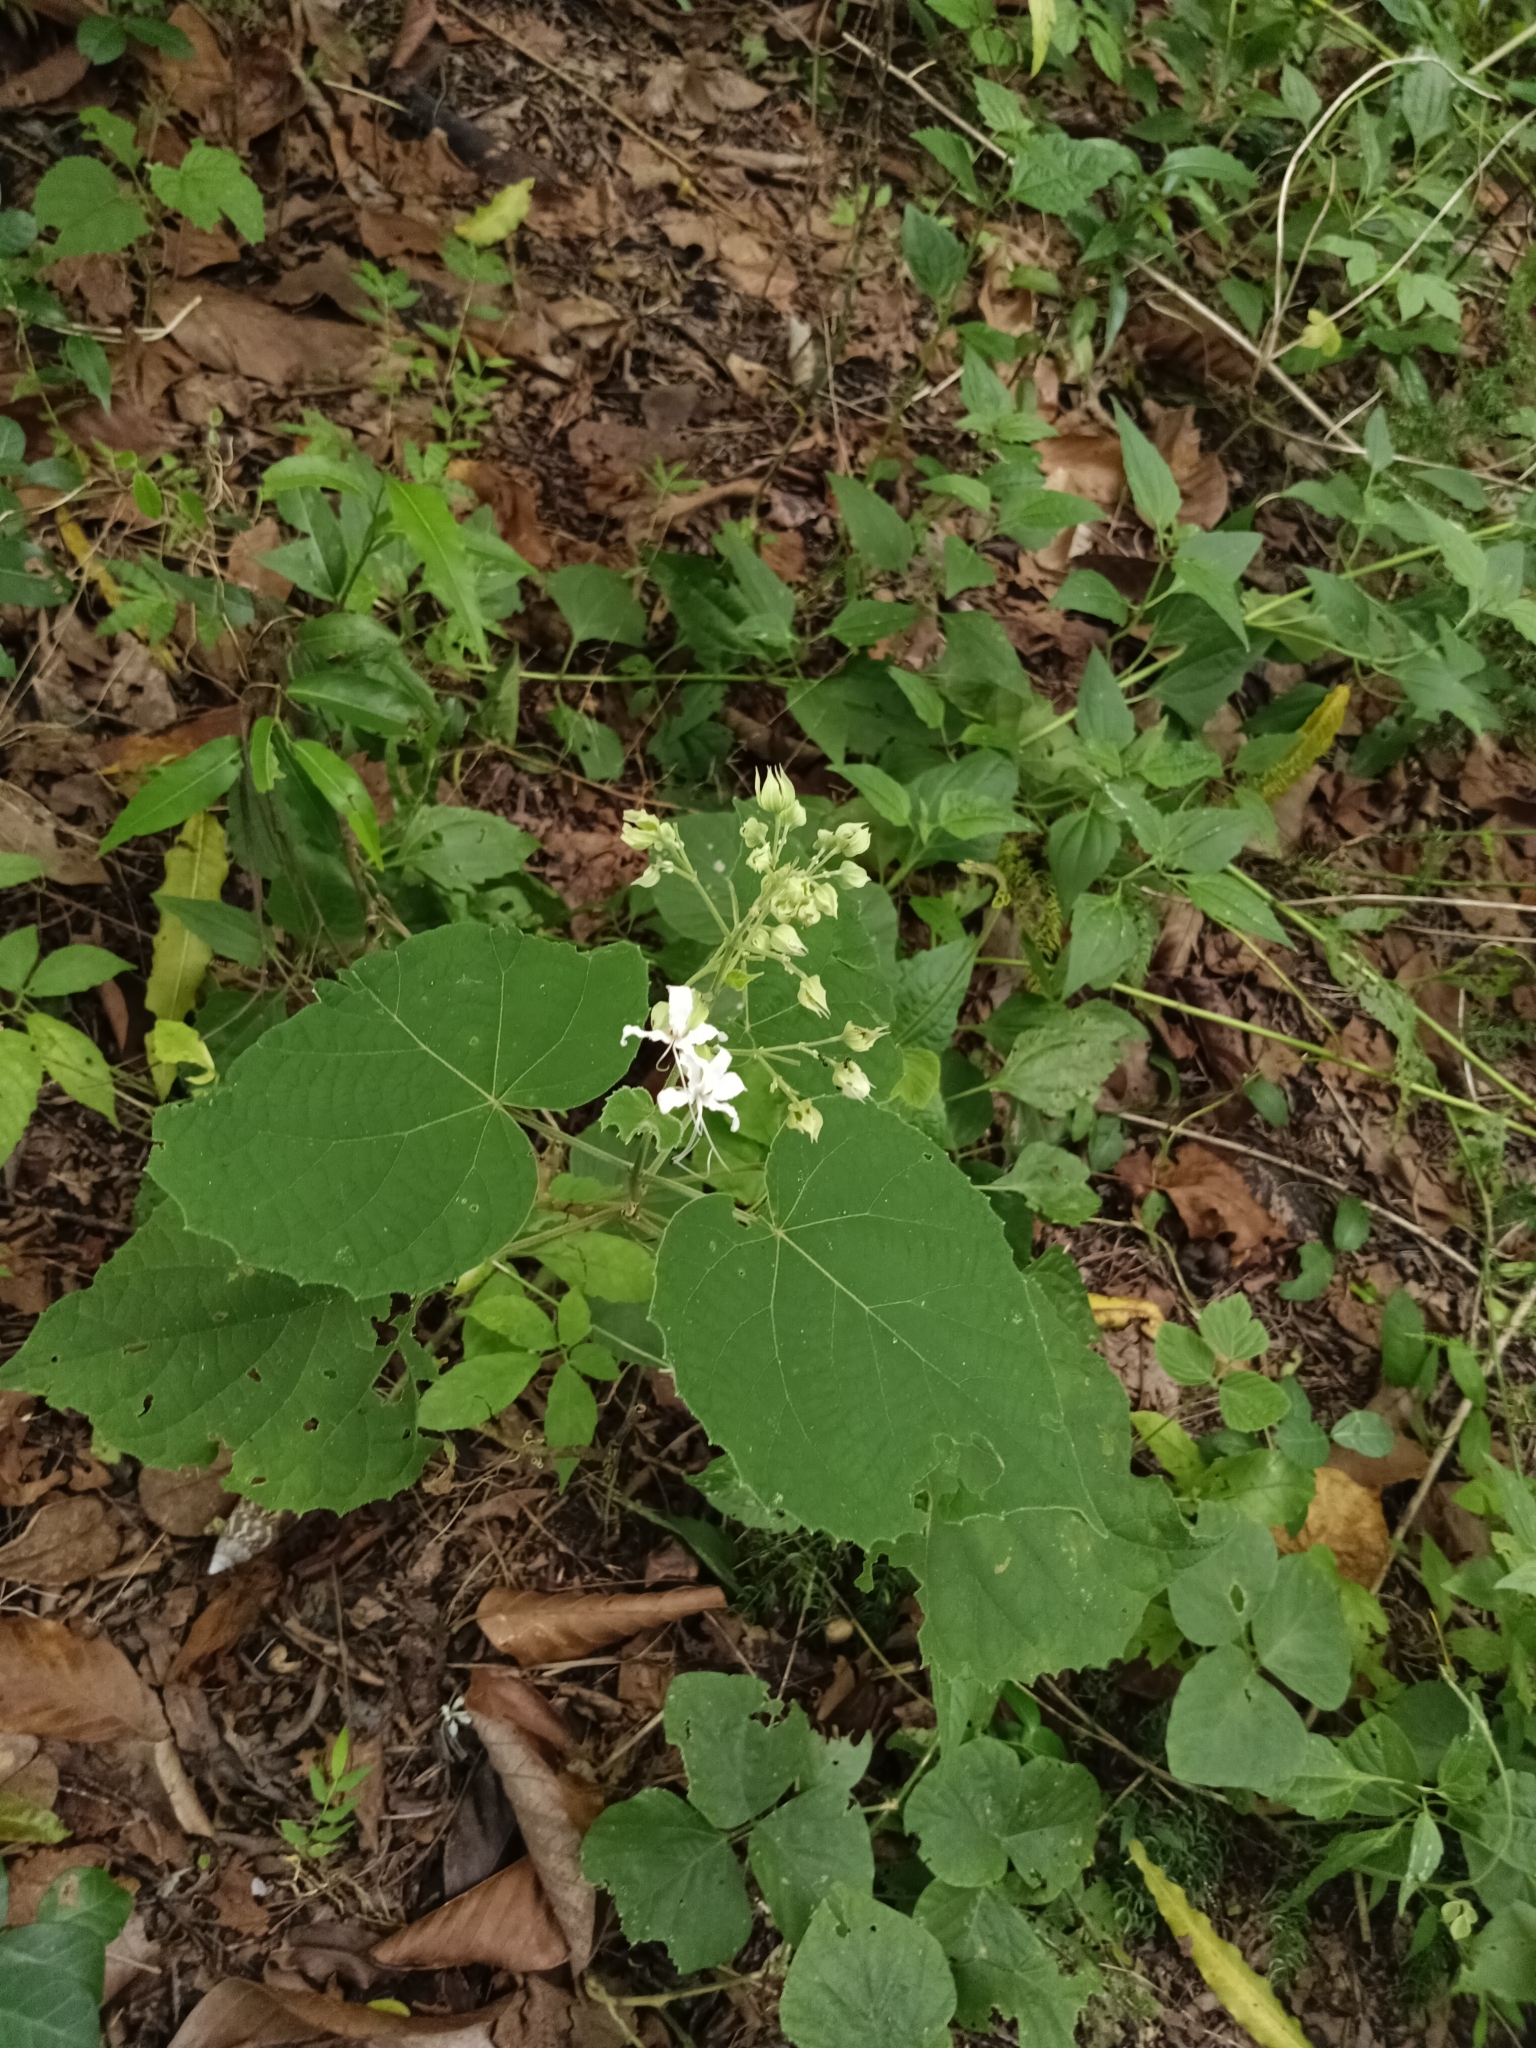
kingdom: Plantae
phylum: Tracheophyta
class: Magnoliopsida
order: Lamiales
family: Lamiaceae
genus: Clerodendrum
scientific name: Clerodendrum infortunatum
